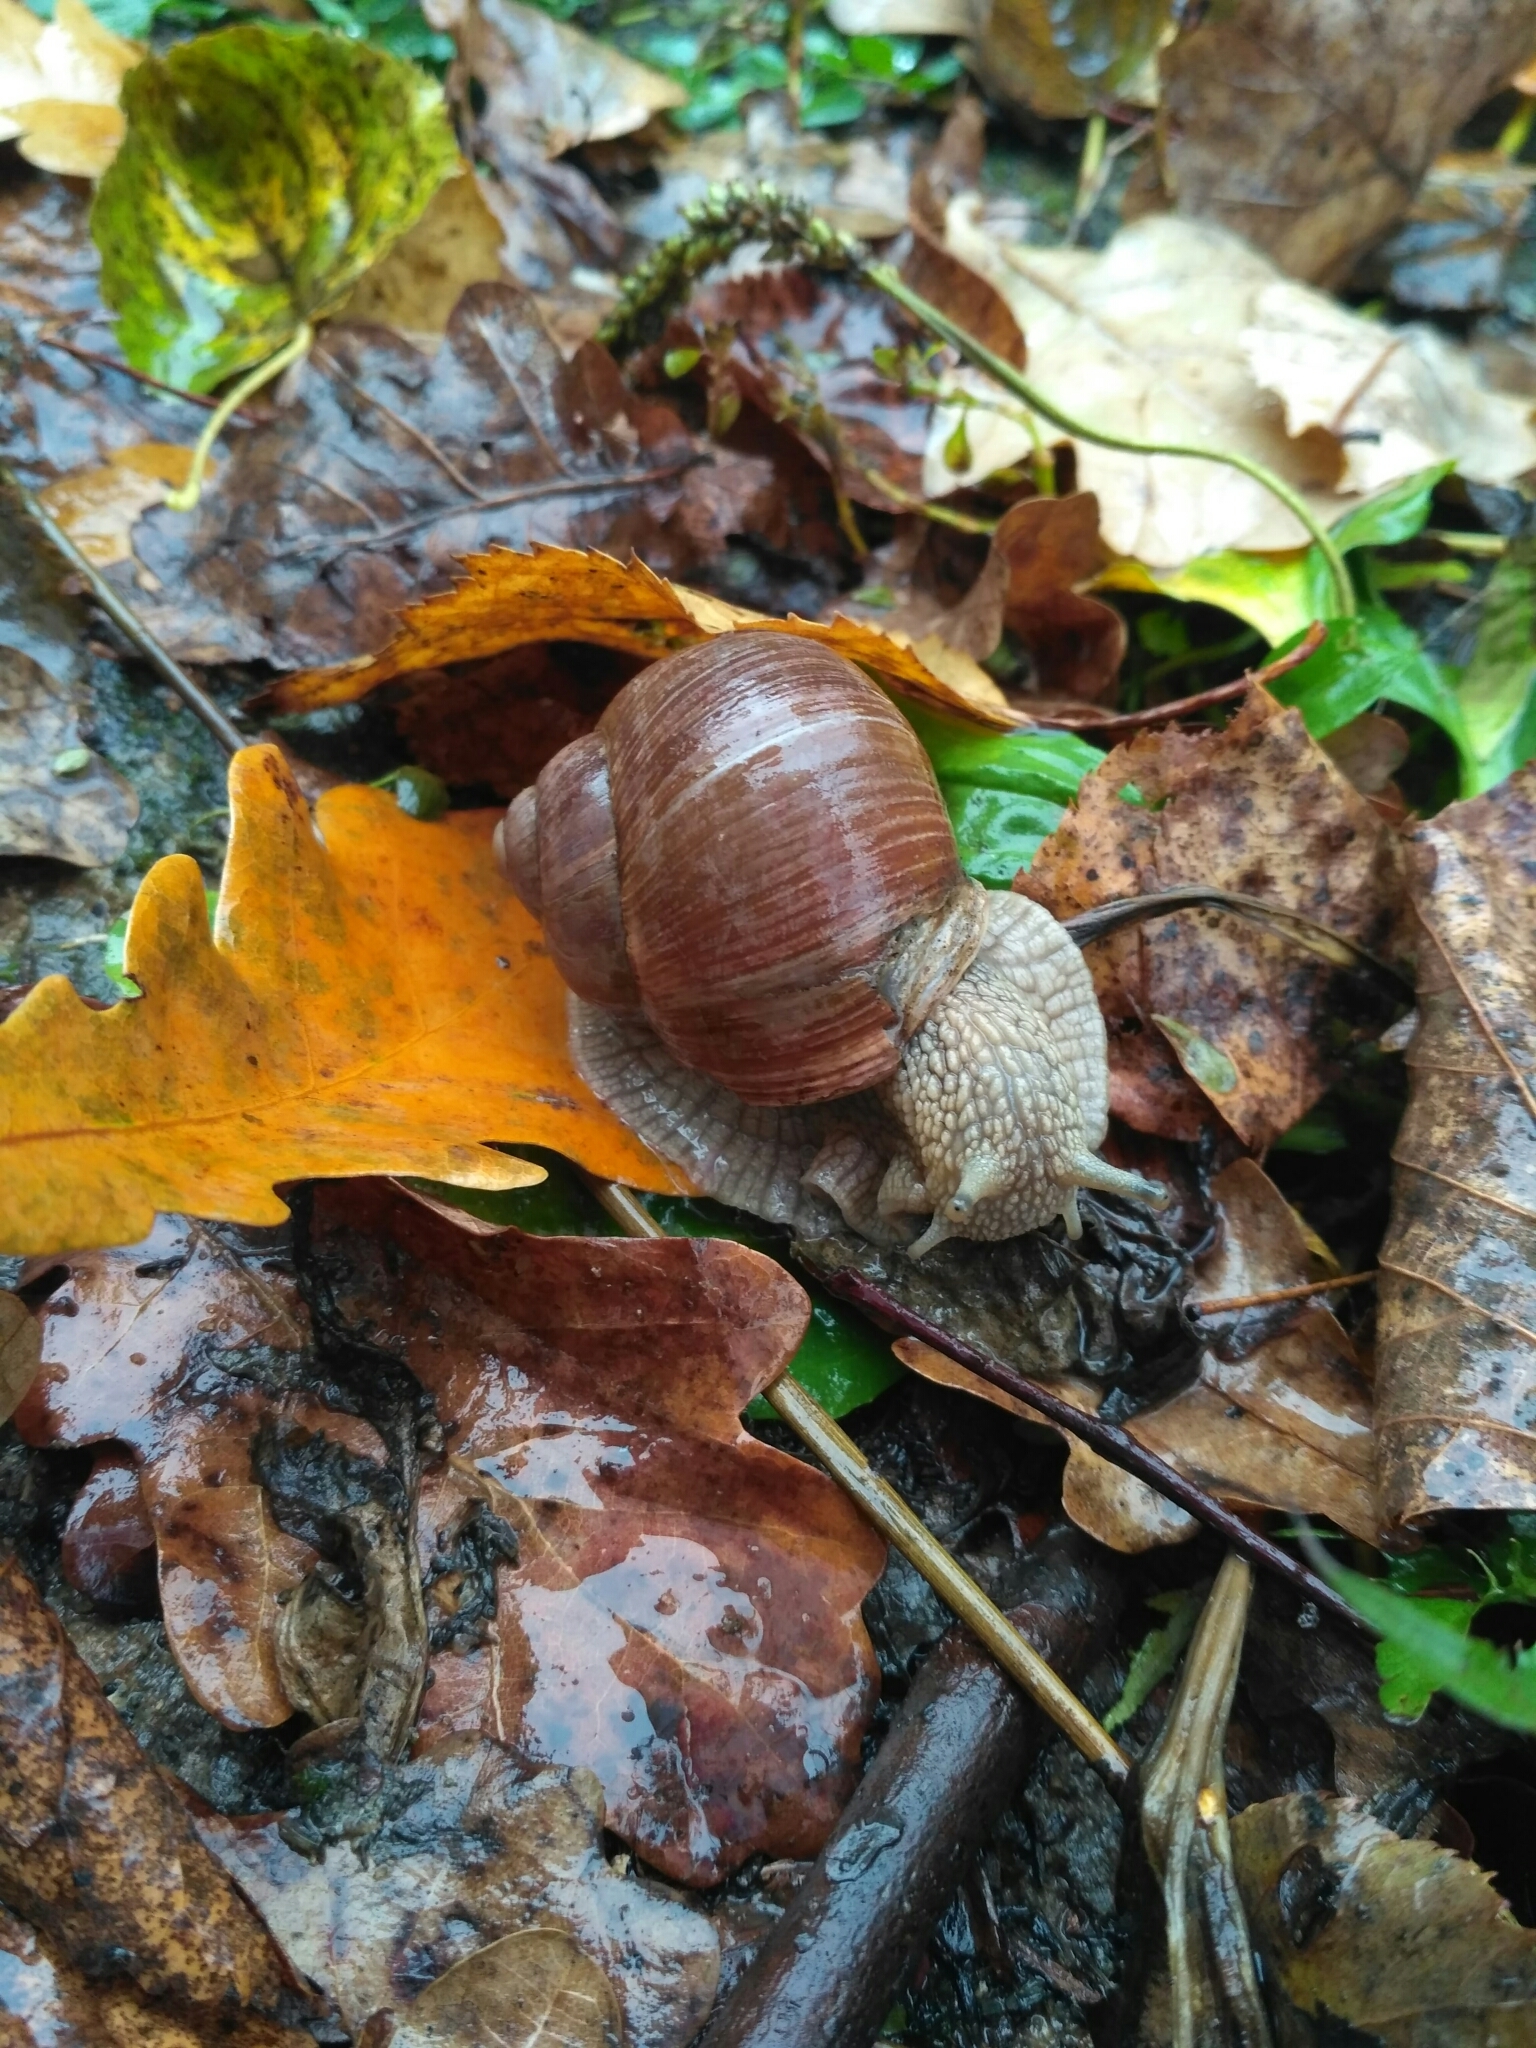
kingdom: Animalia
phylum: Mollusca
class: Gastropoda
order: Stylommatophora
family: Helicidae
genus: Helix
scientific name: Helix pomatia
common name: Roman snail
